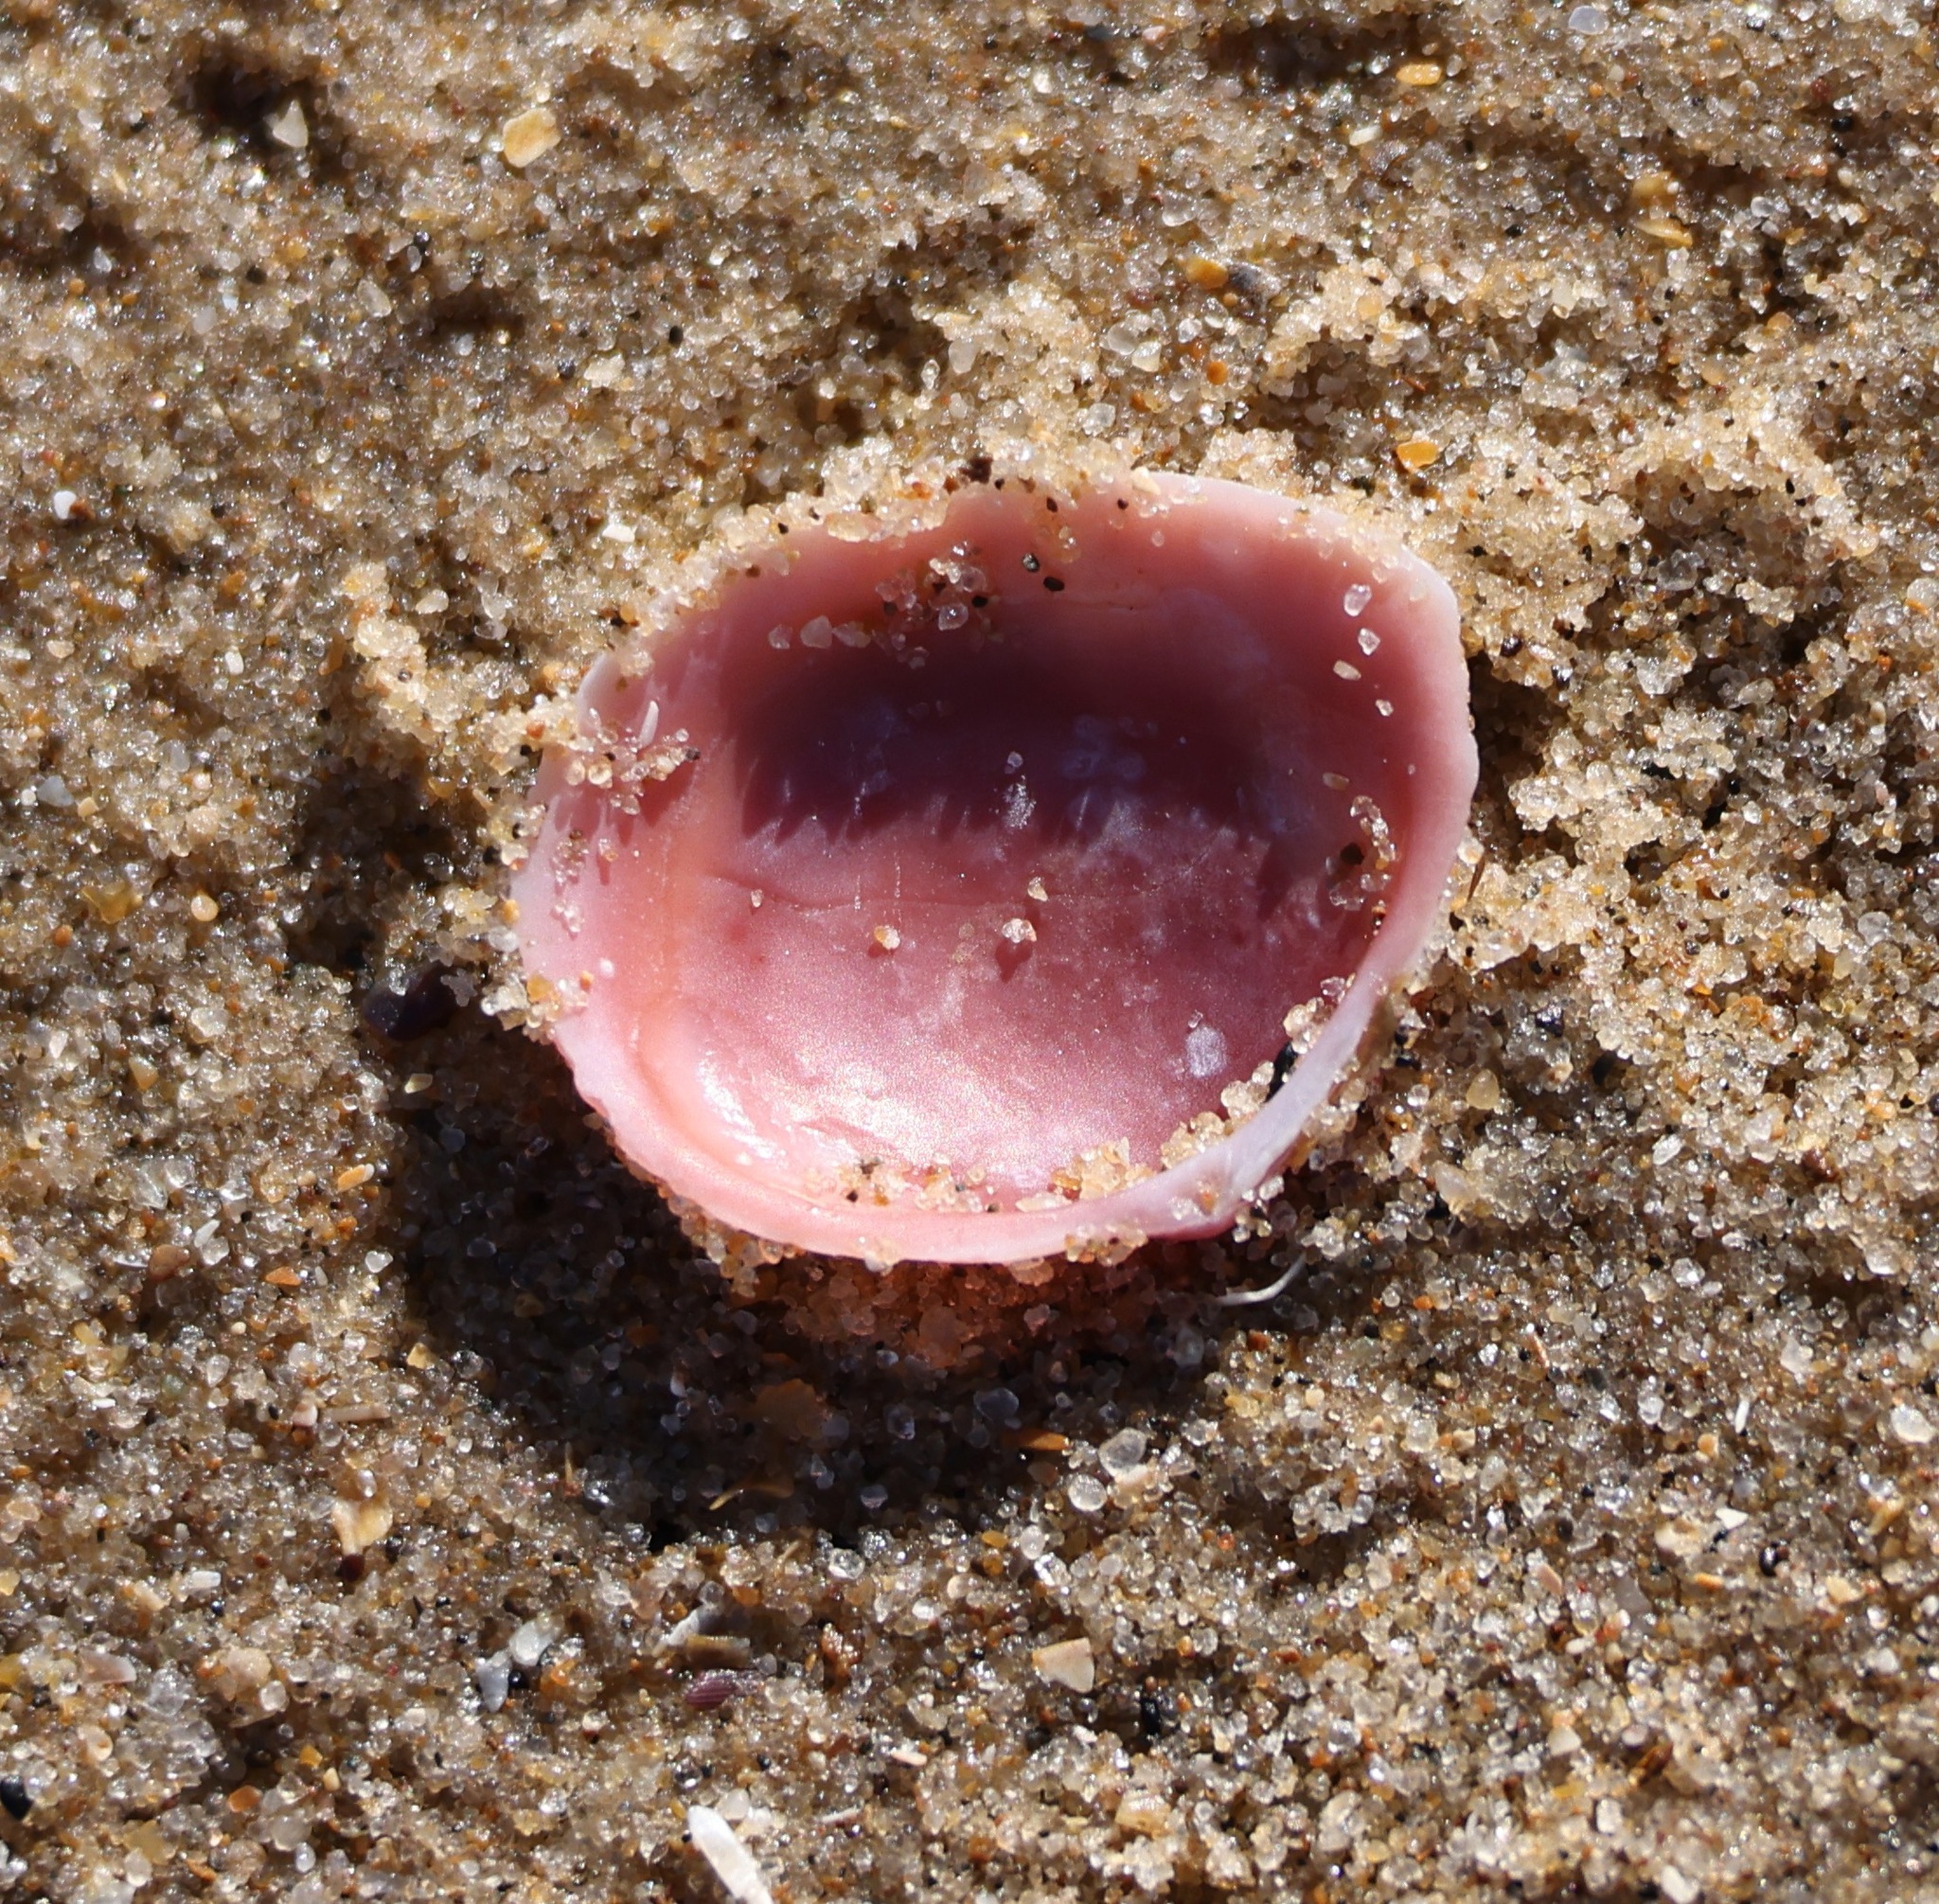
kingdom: Animalia
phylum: Mollusca
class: Bivalvia
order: Cardiida
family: Tellinidae
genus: Macoma
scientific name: Macoma balthica
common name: Baltic tellin
